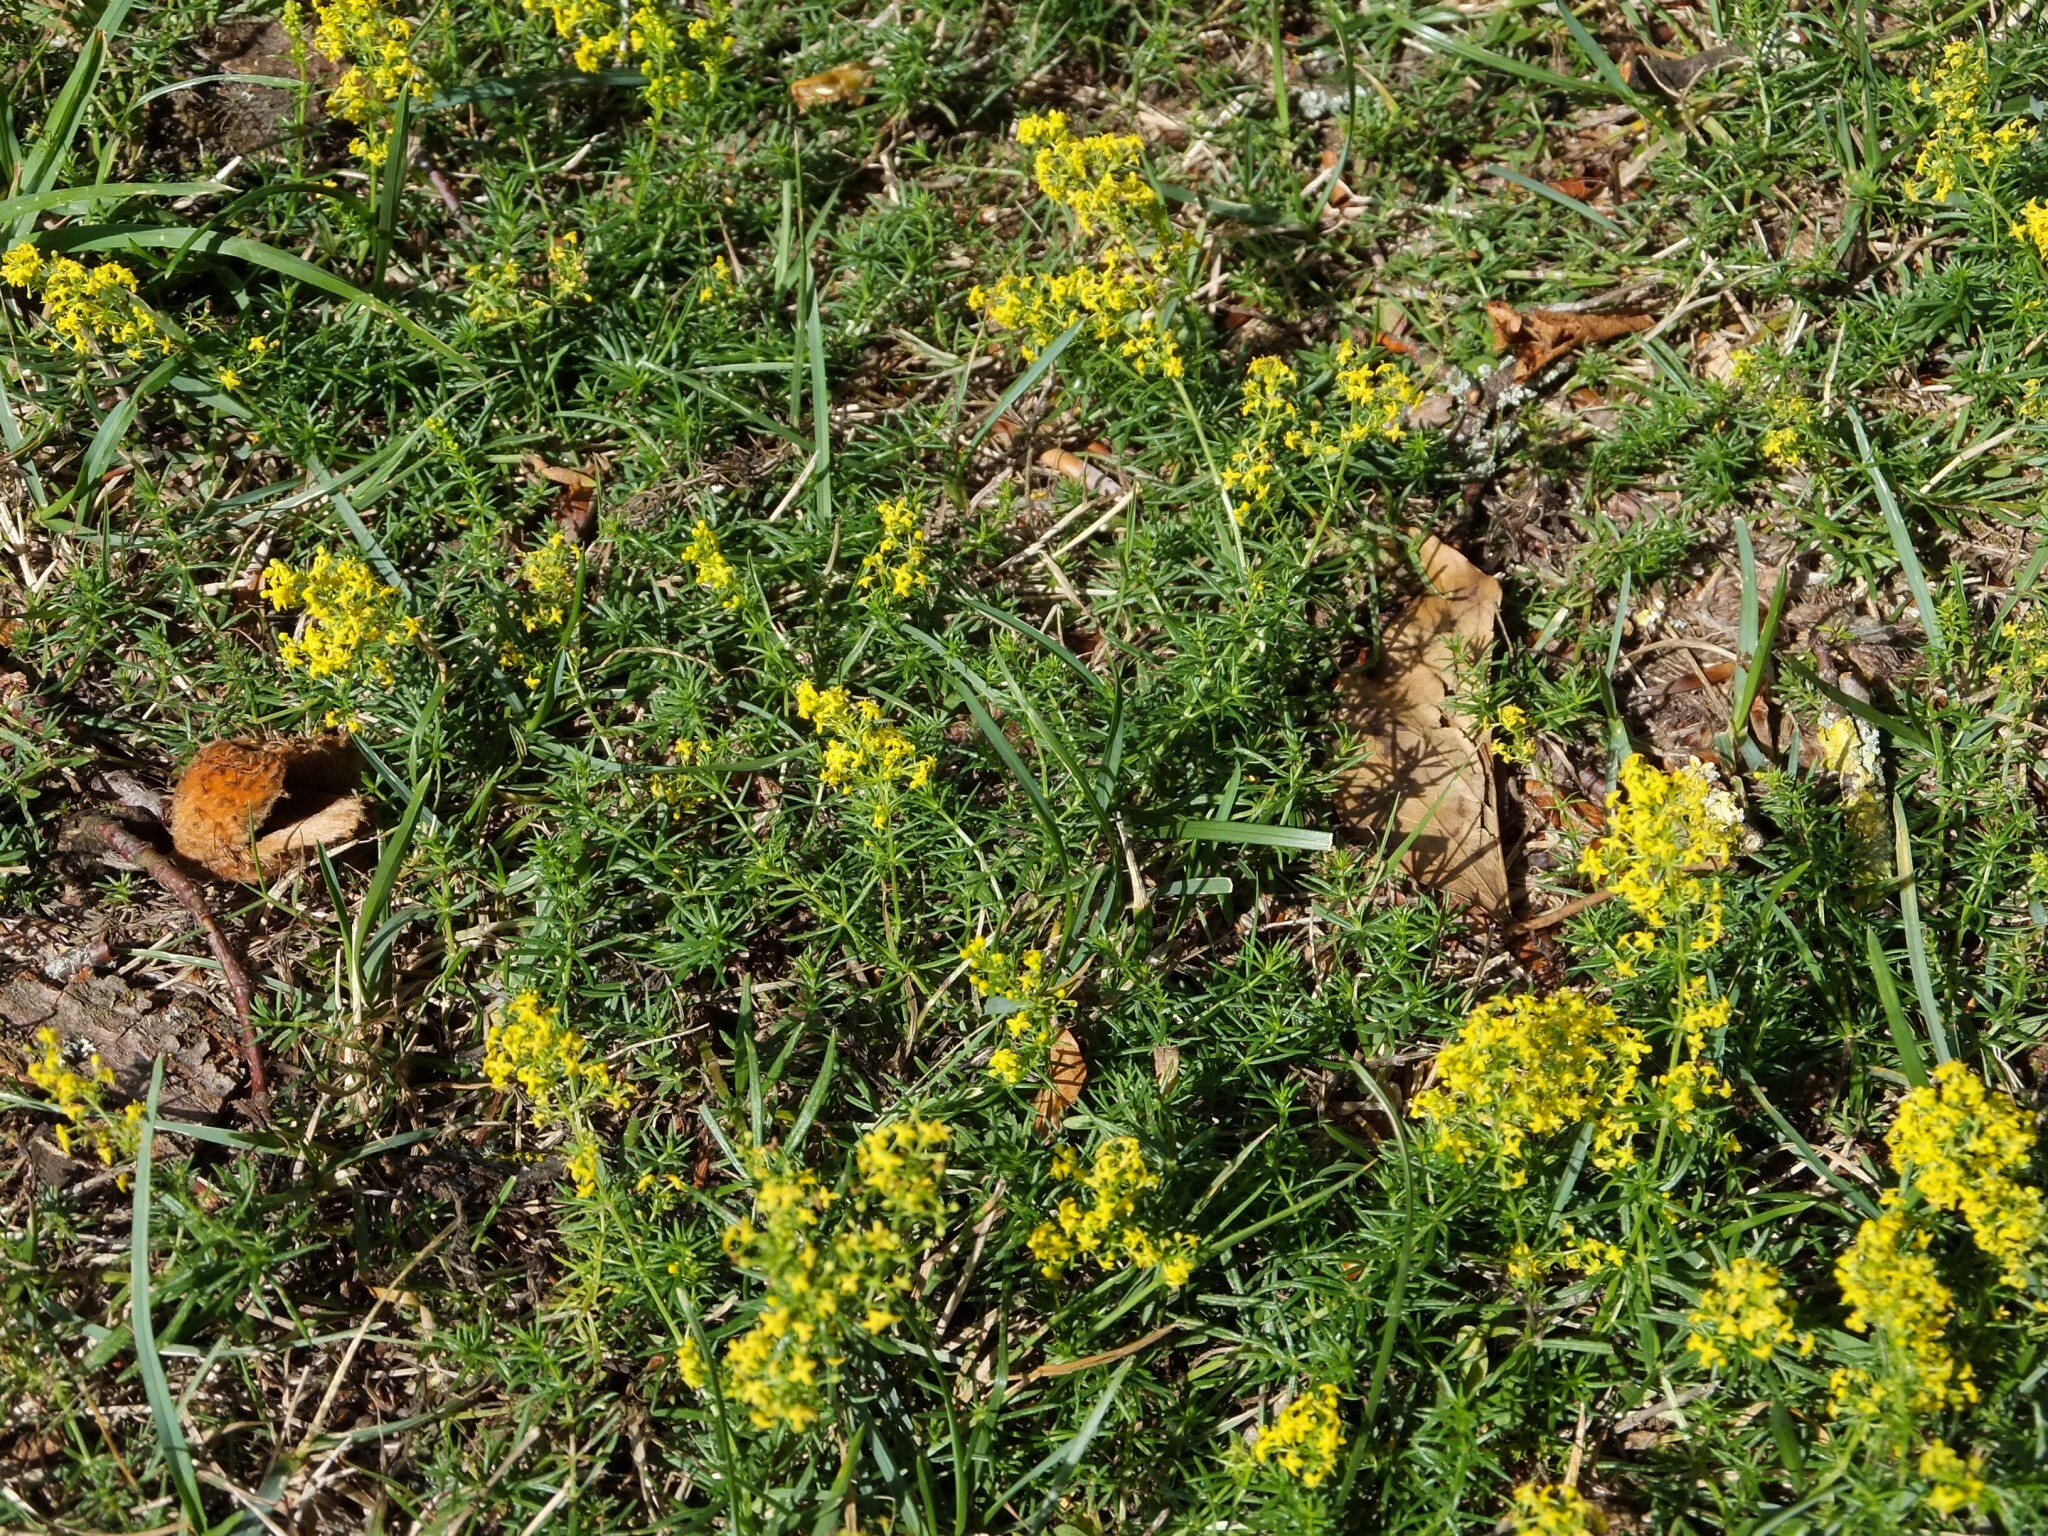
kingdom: Plantae
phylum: Tracheophyta
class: Magnoliopsida
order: Gentianales
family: Rubiaceae
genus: Galium
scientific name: Galium verum
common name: Lady's bedstraw
